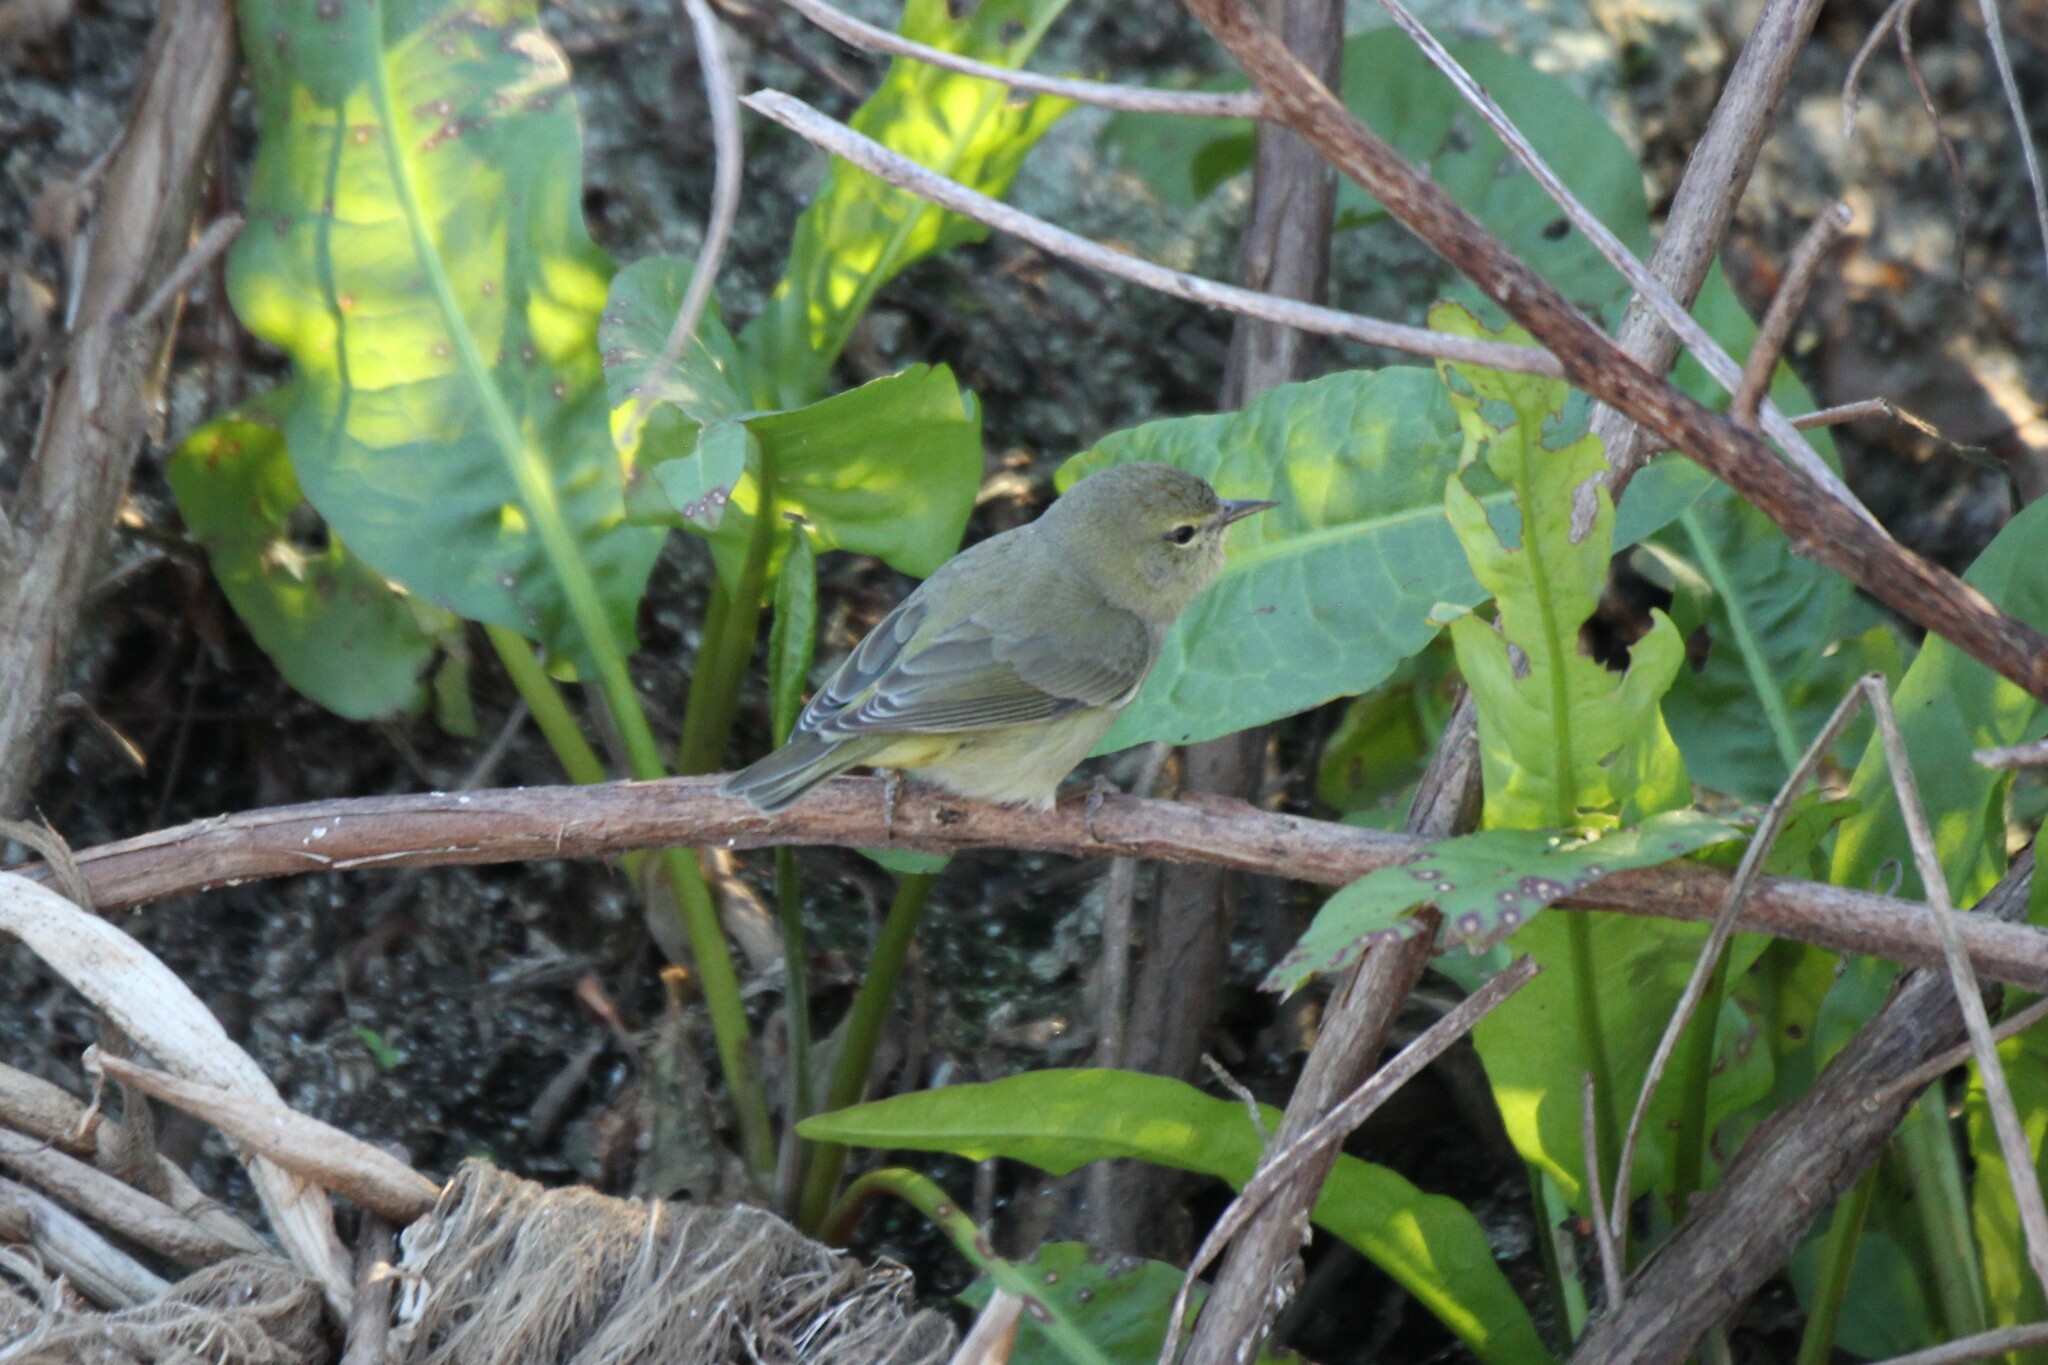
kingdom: Animalia
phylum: Chordata
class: Aves
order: Passeriformes
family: Parulidae
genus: Leiothlypis
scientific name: Leiothlypis celata
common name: Orange-crowned warbler
